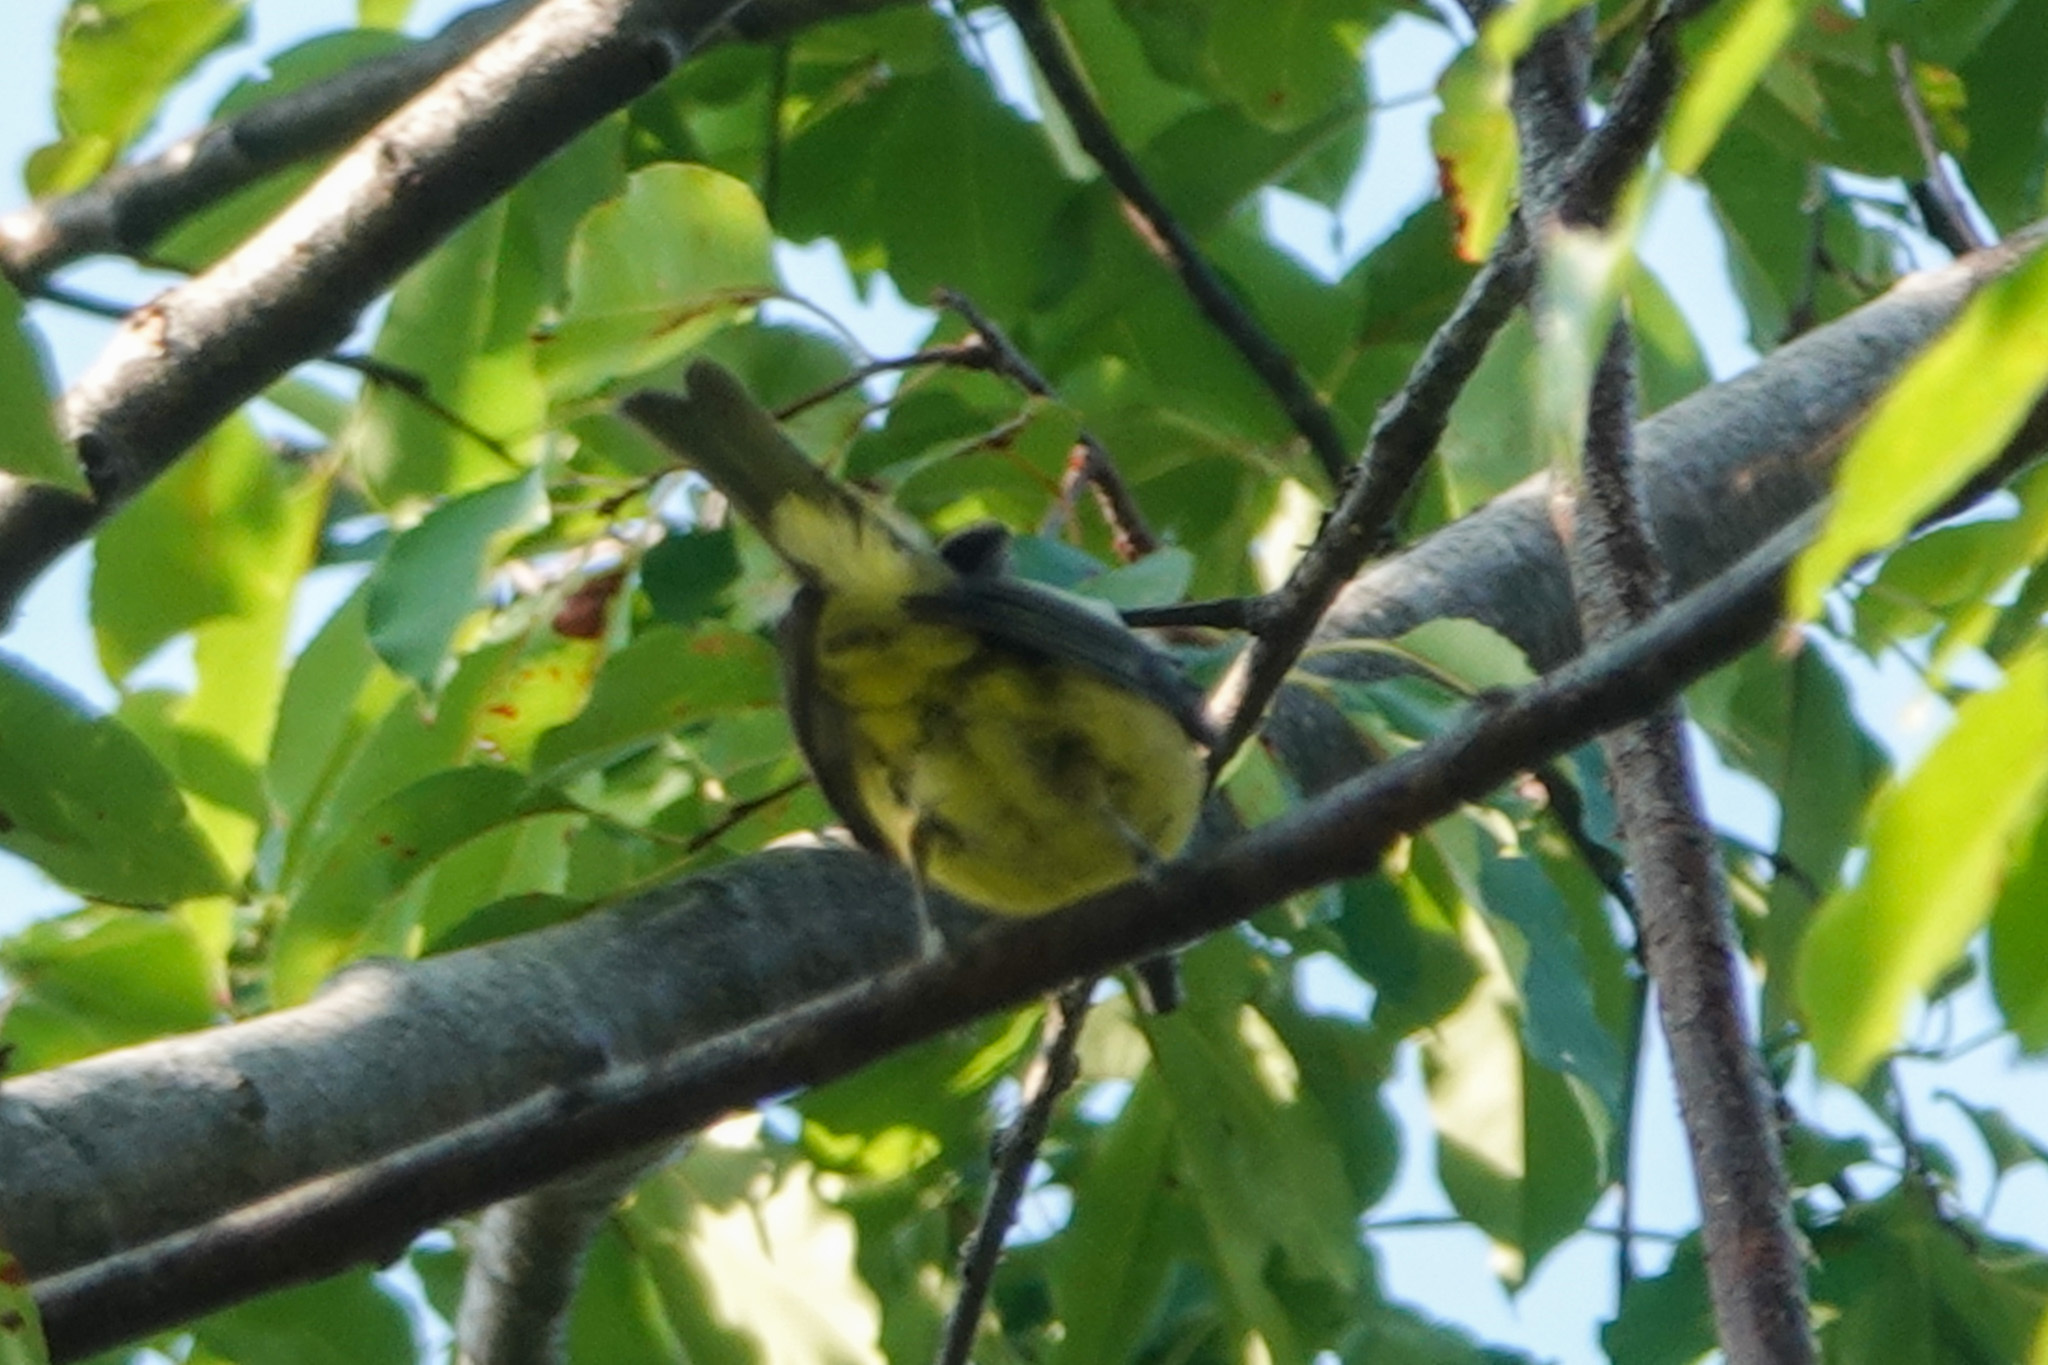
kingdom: Animalia
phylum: Chordata
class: Aves
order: Passeriformes
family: Cardinalidae
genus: Piranga
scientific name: Piranga olivacea
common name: Scarlet tanager
